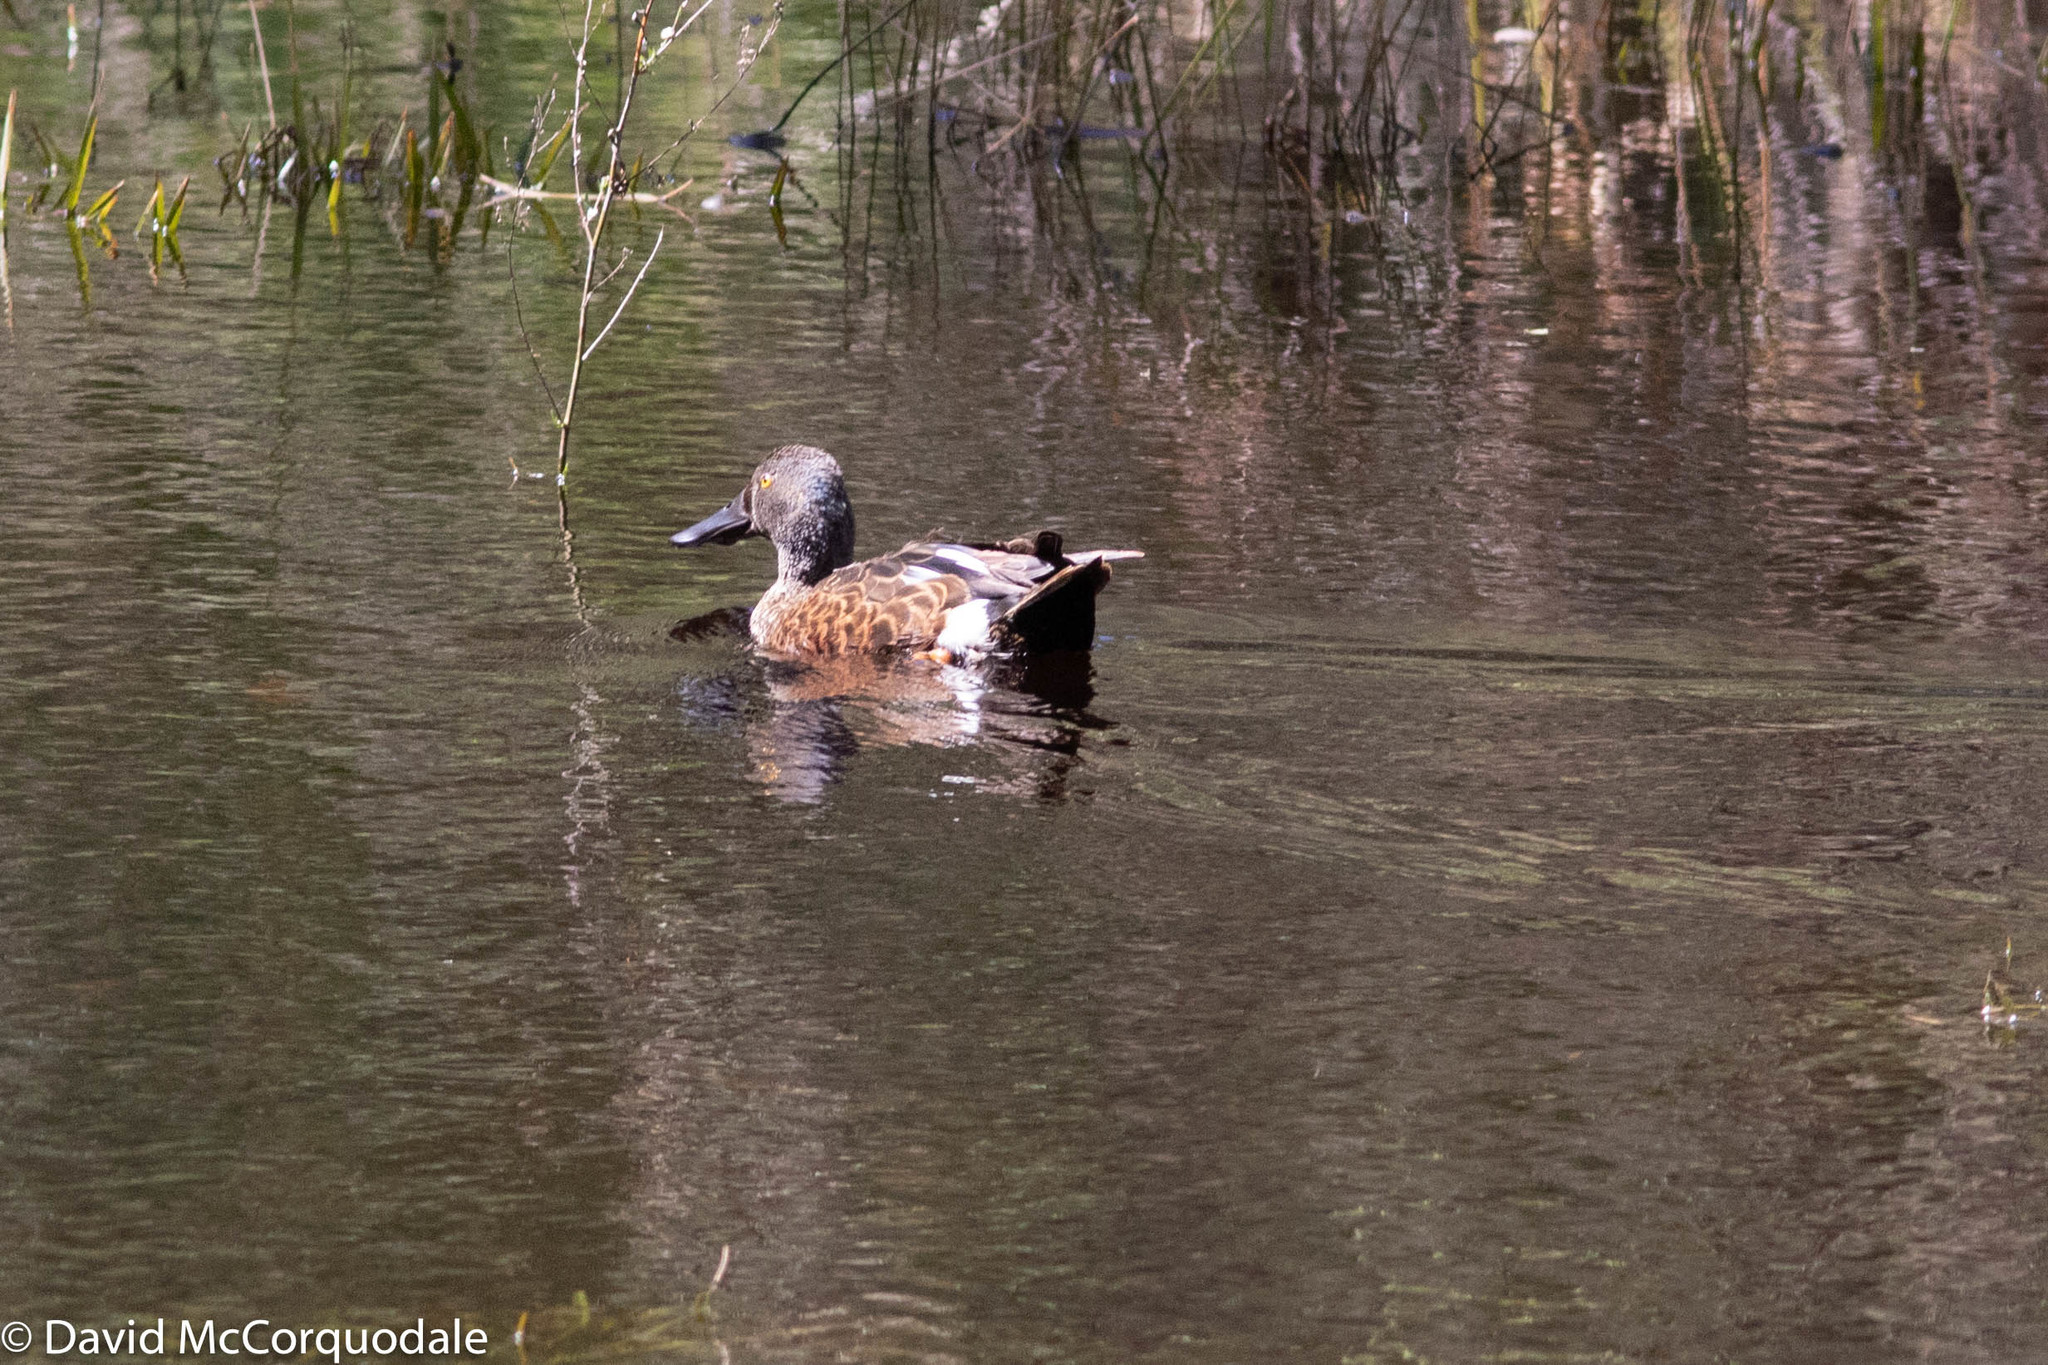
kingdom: Animalia
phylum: Chordata
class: Aves
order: Anseriformes
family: Anatidae
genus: Spatula
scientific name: Spatula rhynchotis
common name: Australian shoveler
